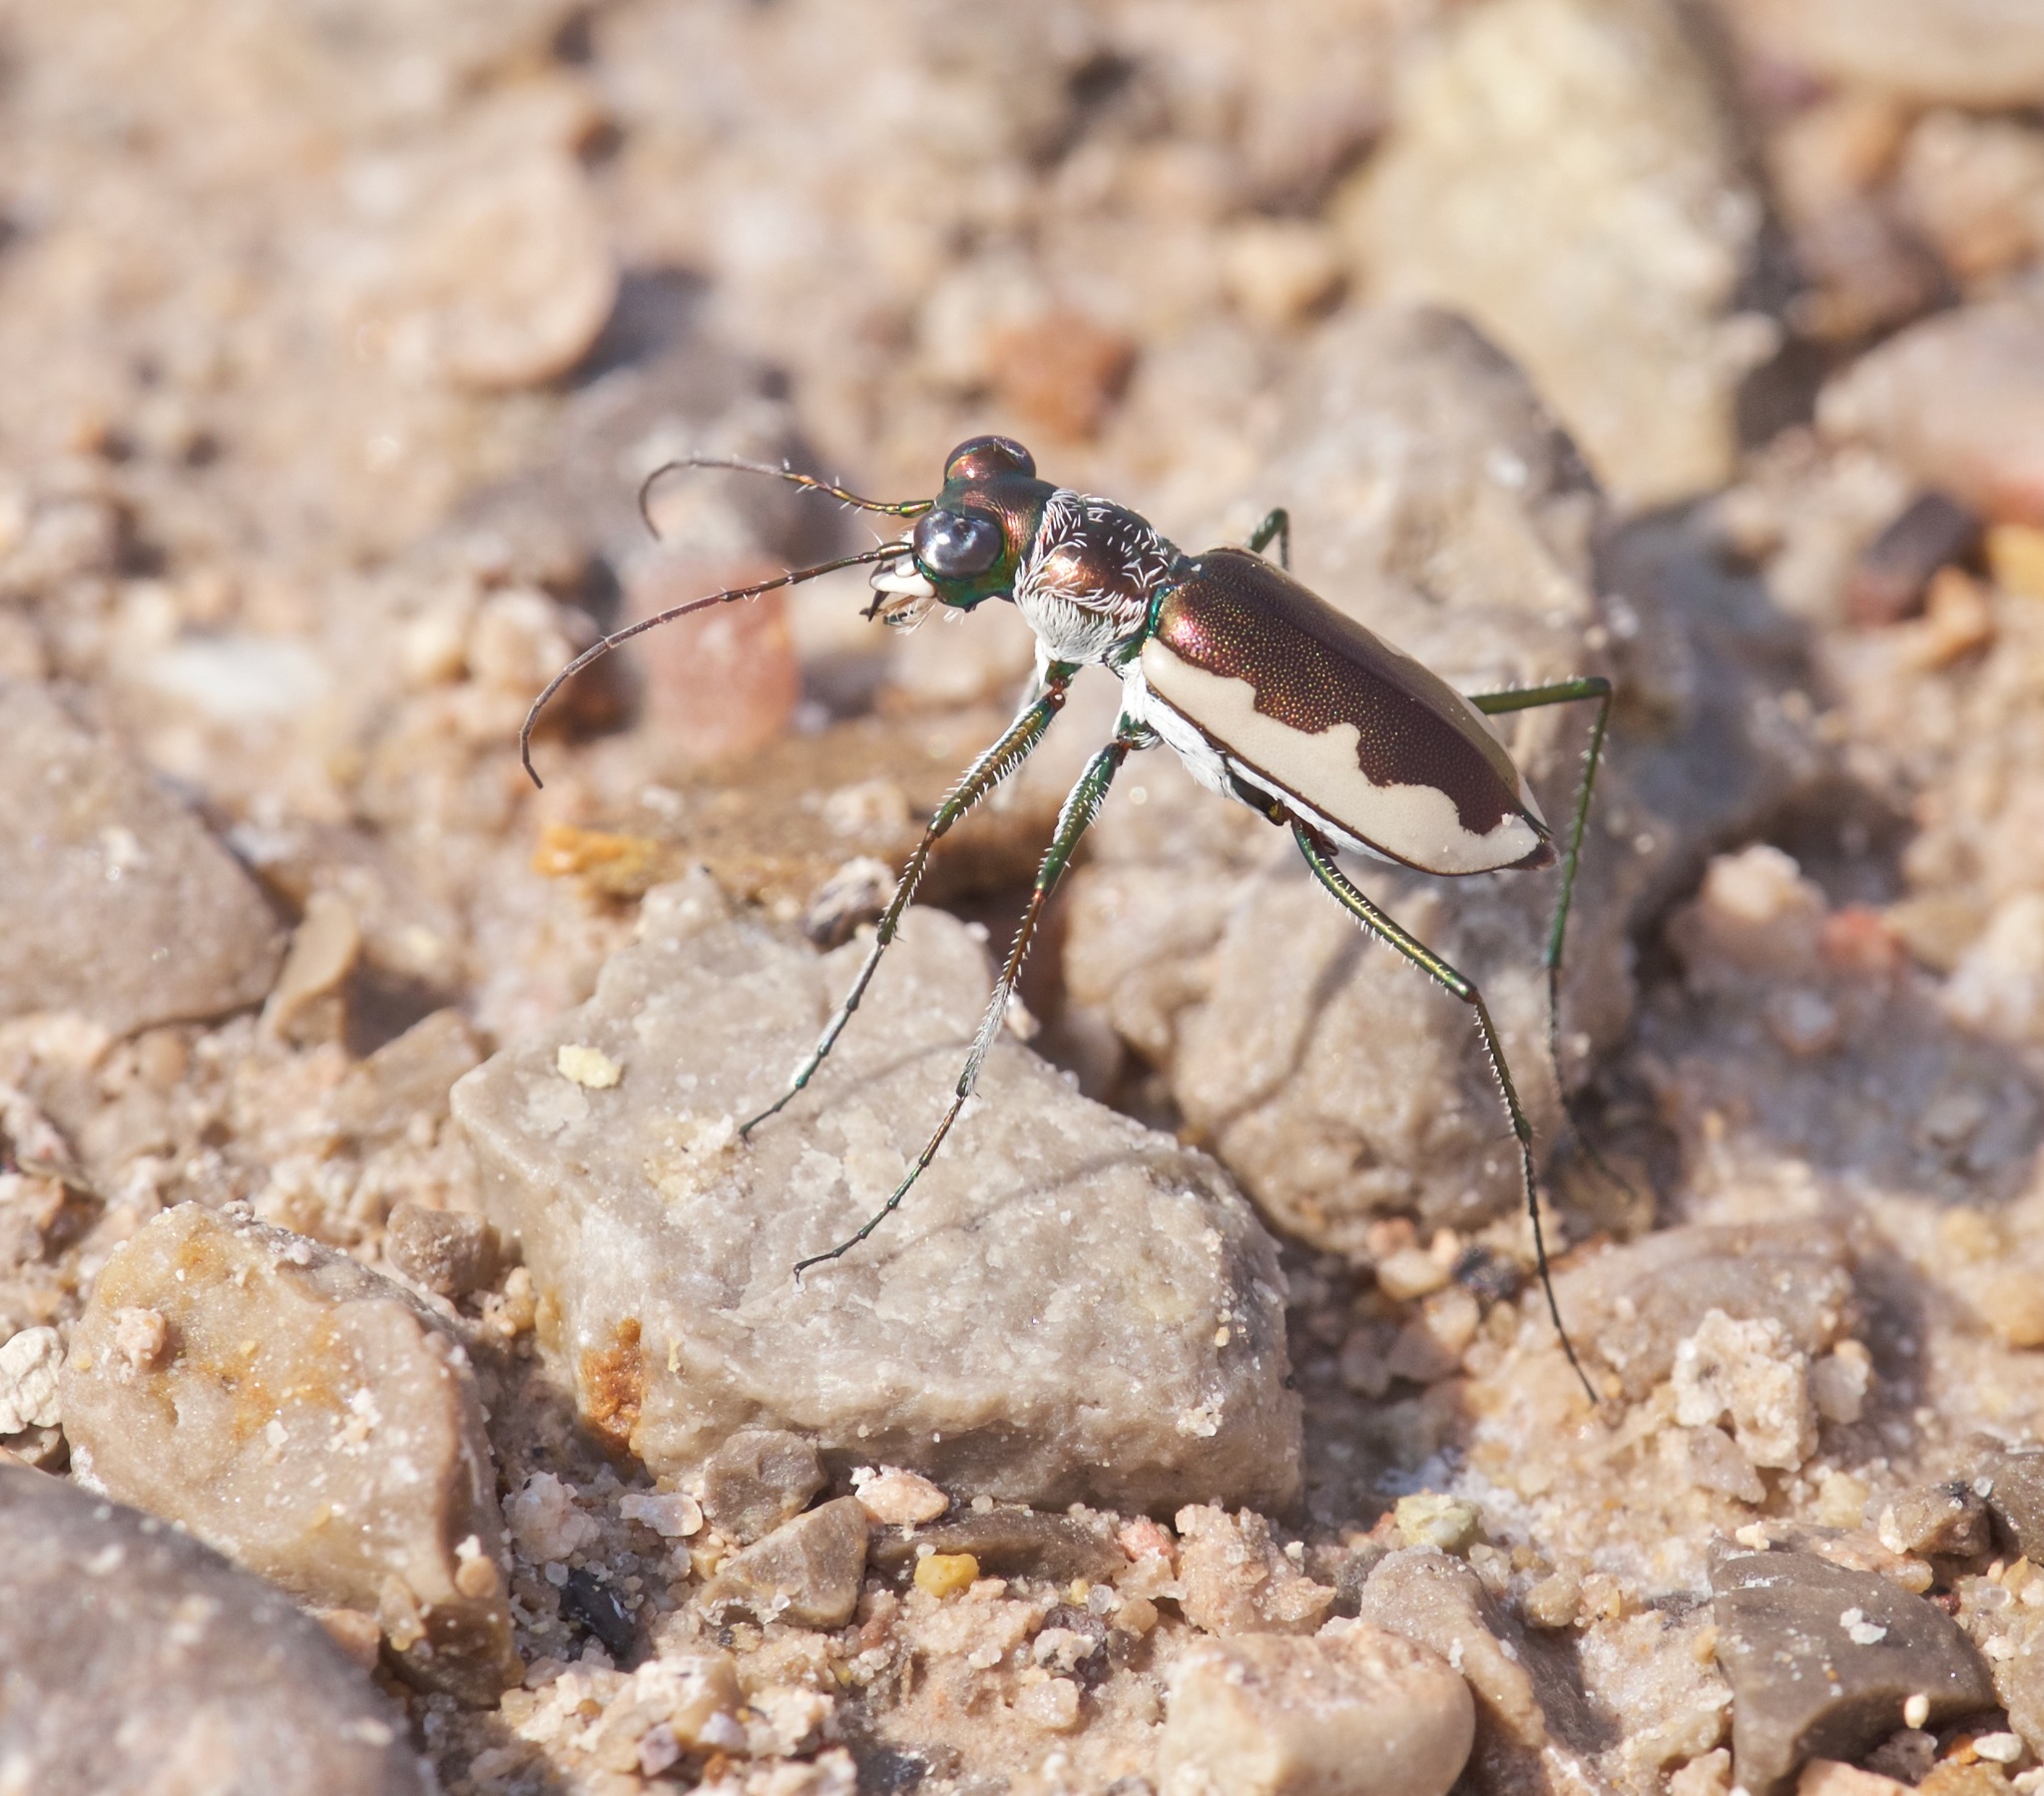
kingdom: Animalia
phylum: Arthropoda
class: Insecta
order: Coleoptera
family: Carabidae
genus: Eunota
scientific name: Eunota circumpicta
